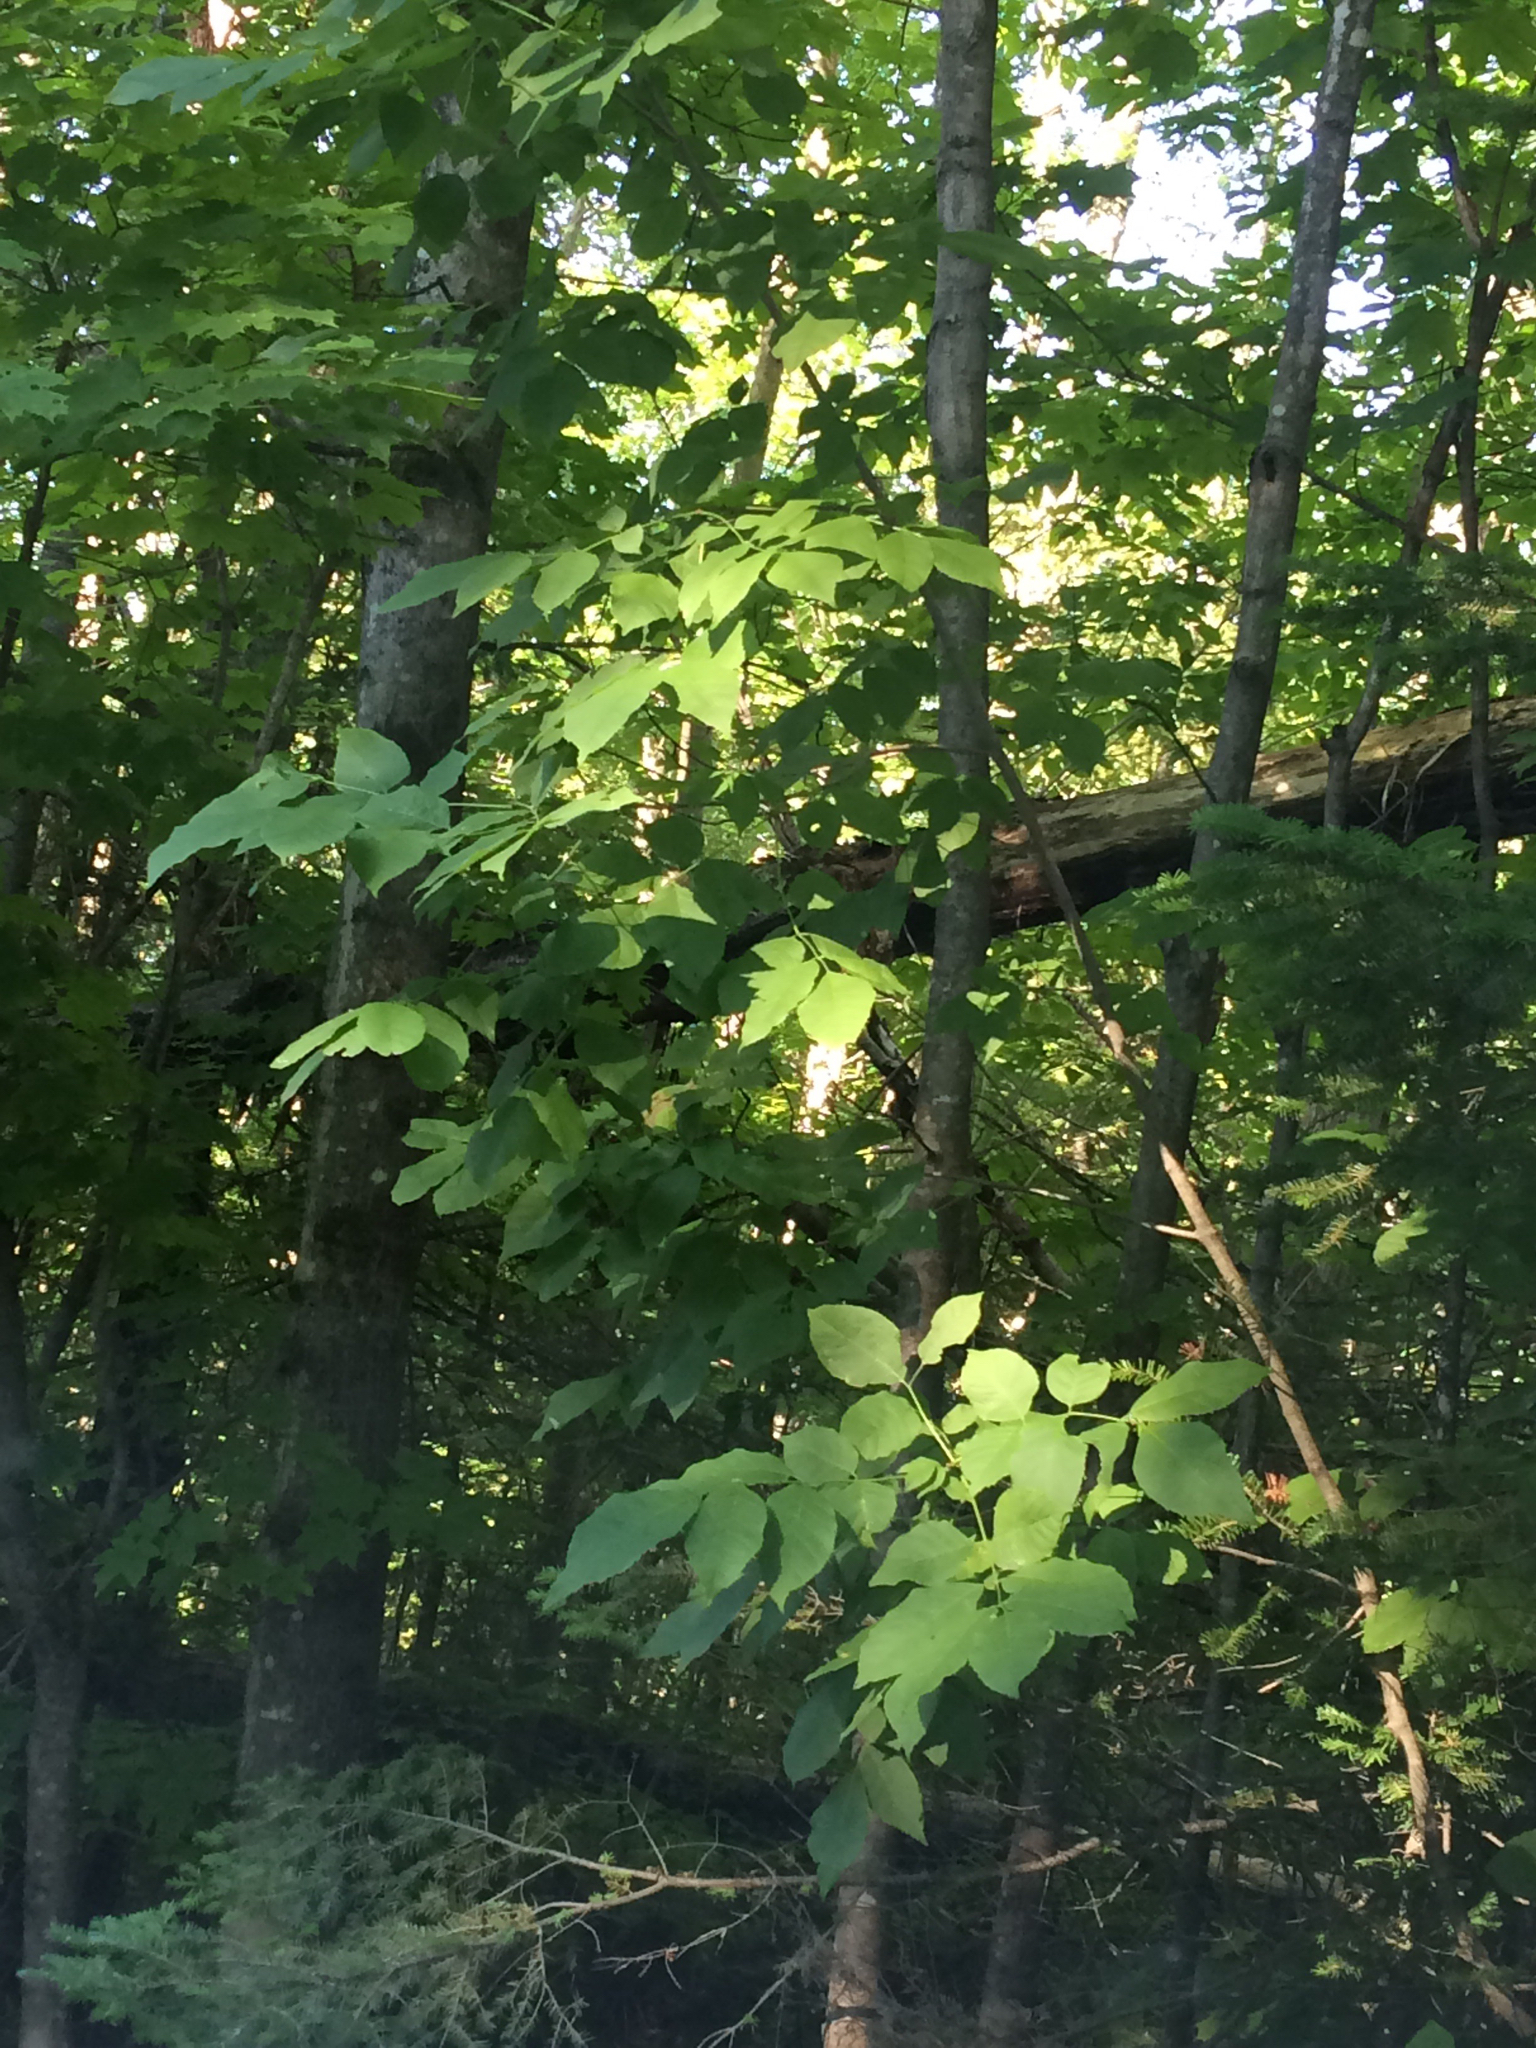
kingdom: Plantae
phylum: Tracheophyta
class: Magnoliopsida
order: Lamiales
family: Oleaceae
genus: Fraxinus
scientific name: Fraxinus americana
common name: White ash
